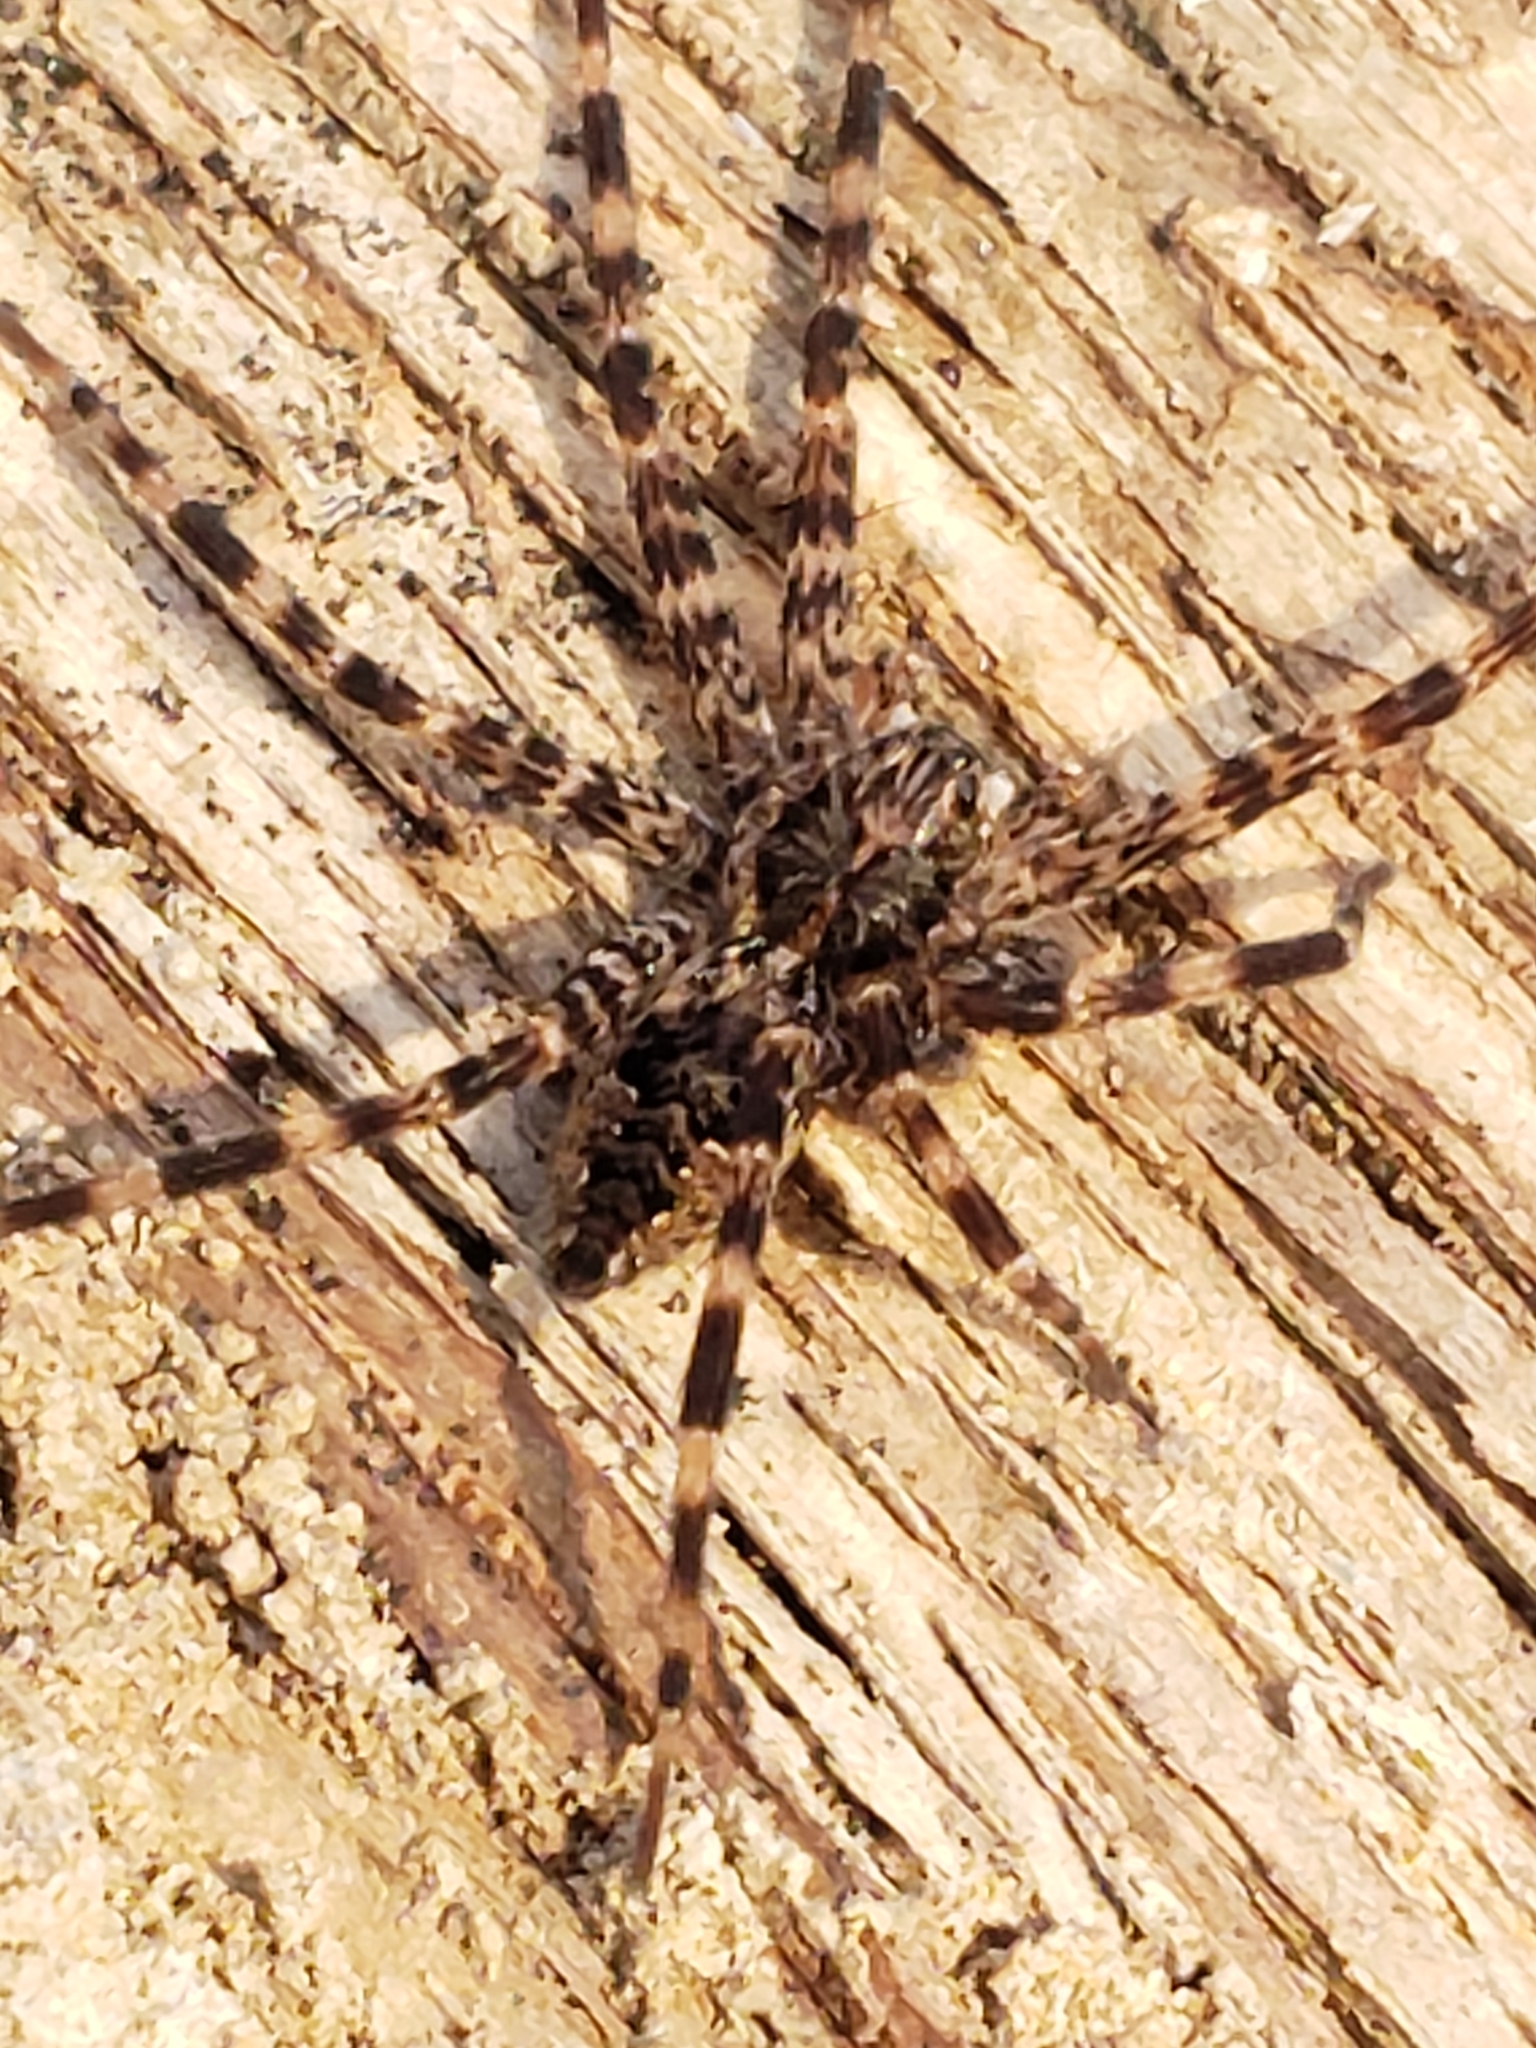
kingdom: Animalia
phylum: Arthropoda
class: Arachnida
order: Araneae
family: Pisauridae
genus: Dolomedes
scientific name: Dolomedes tenebrosus
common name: Dark fishing spider
